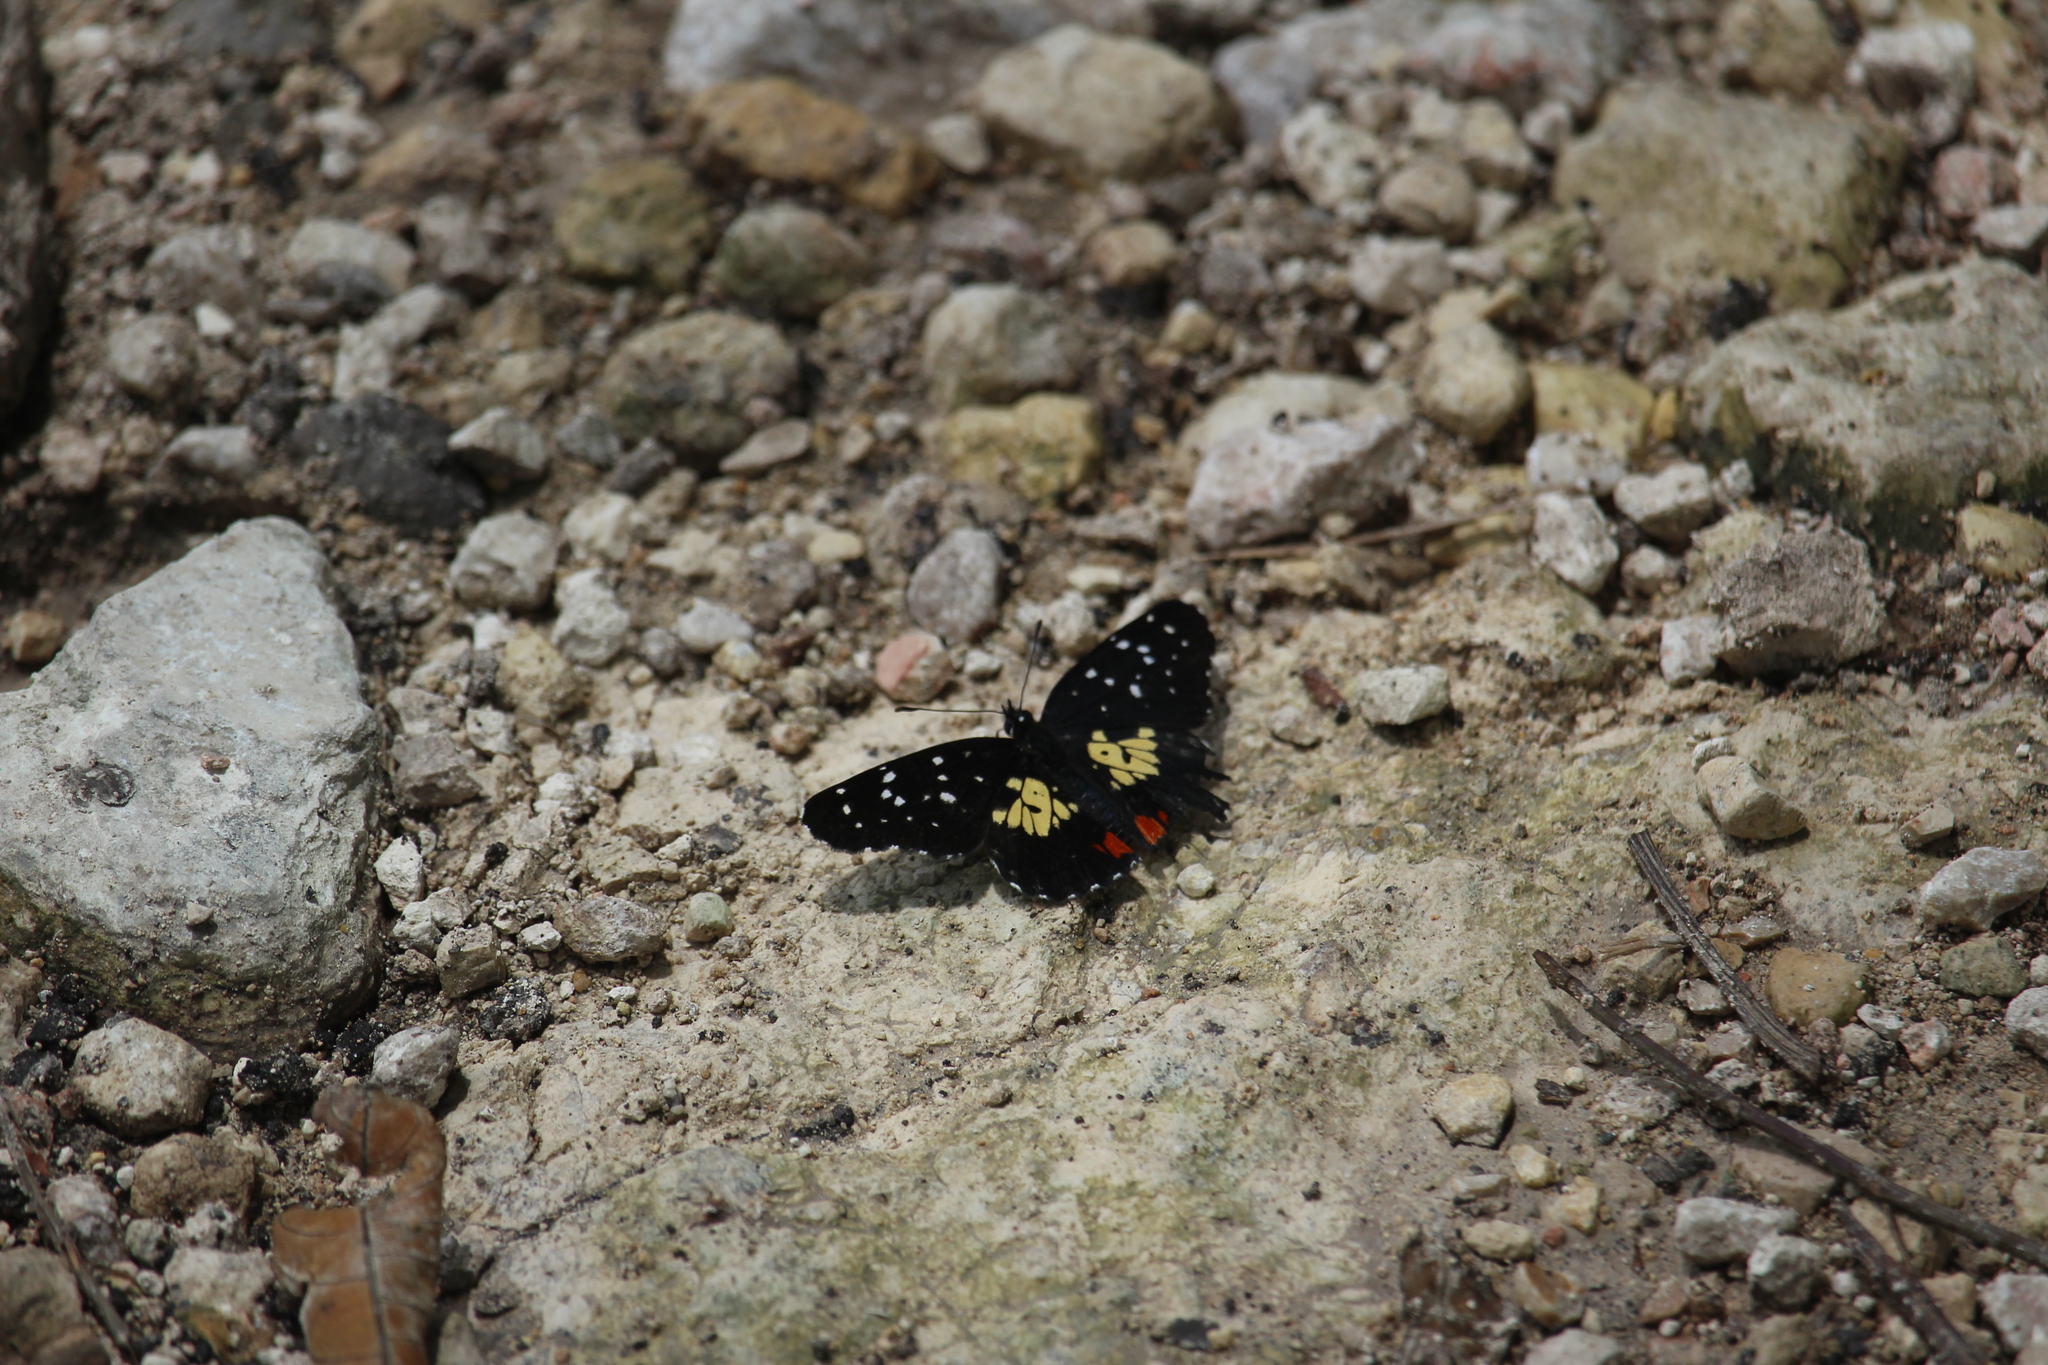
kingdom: Animalia
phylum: Arthropoda
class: Insecta
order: Lepidoptera
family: Nymphalidae
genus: Chlosyne
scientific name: Chlosyne erodyle
